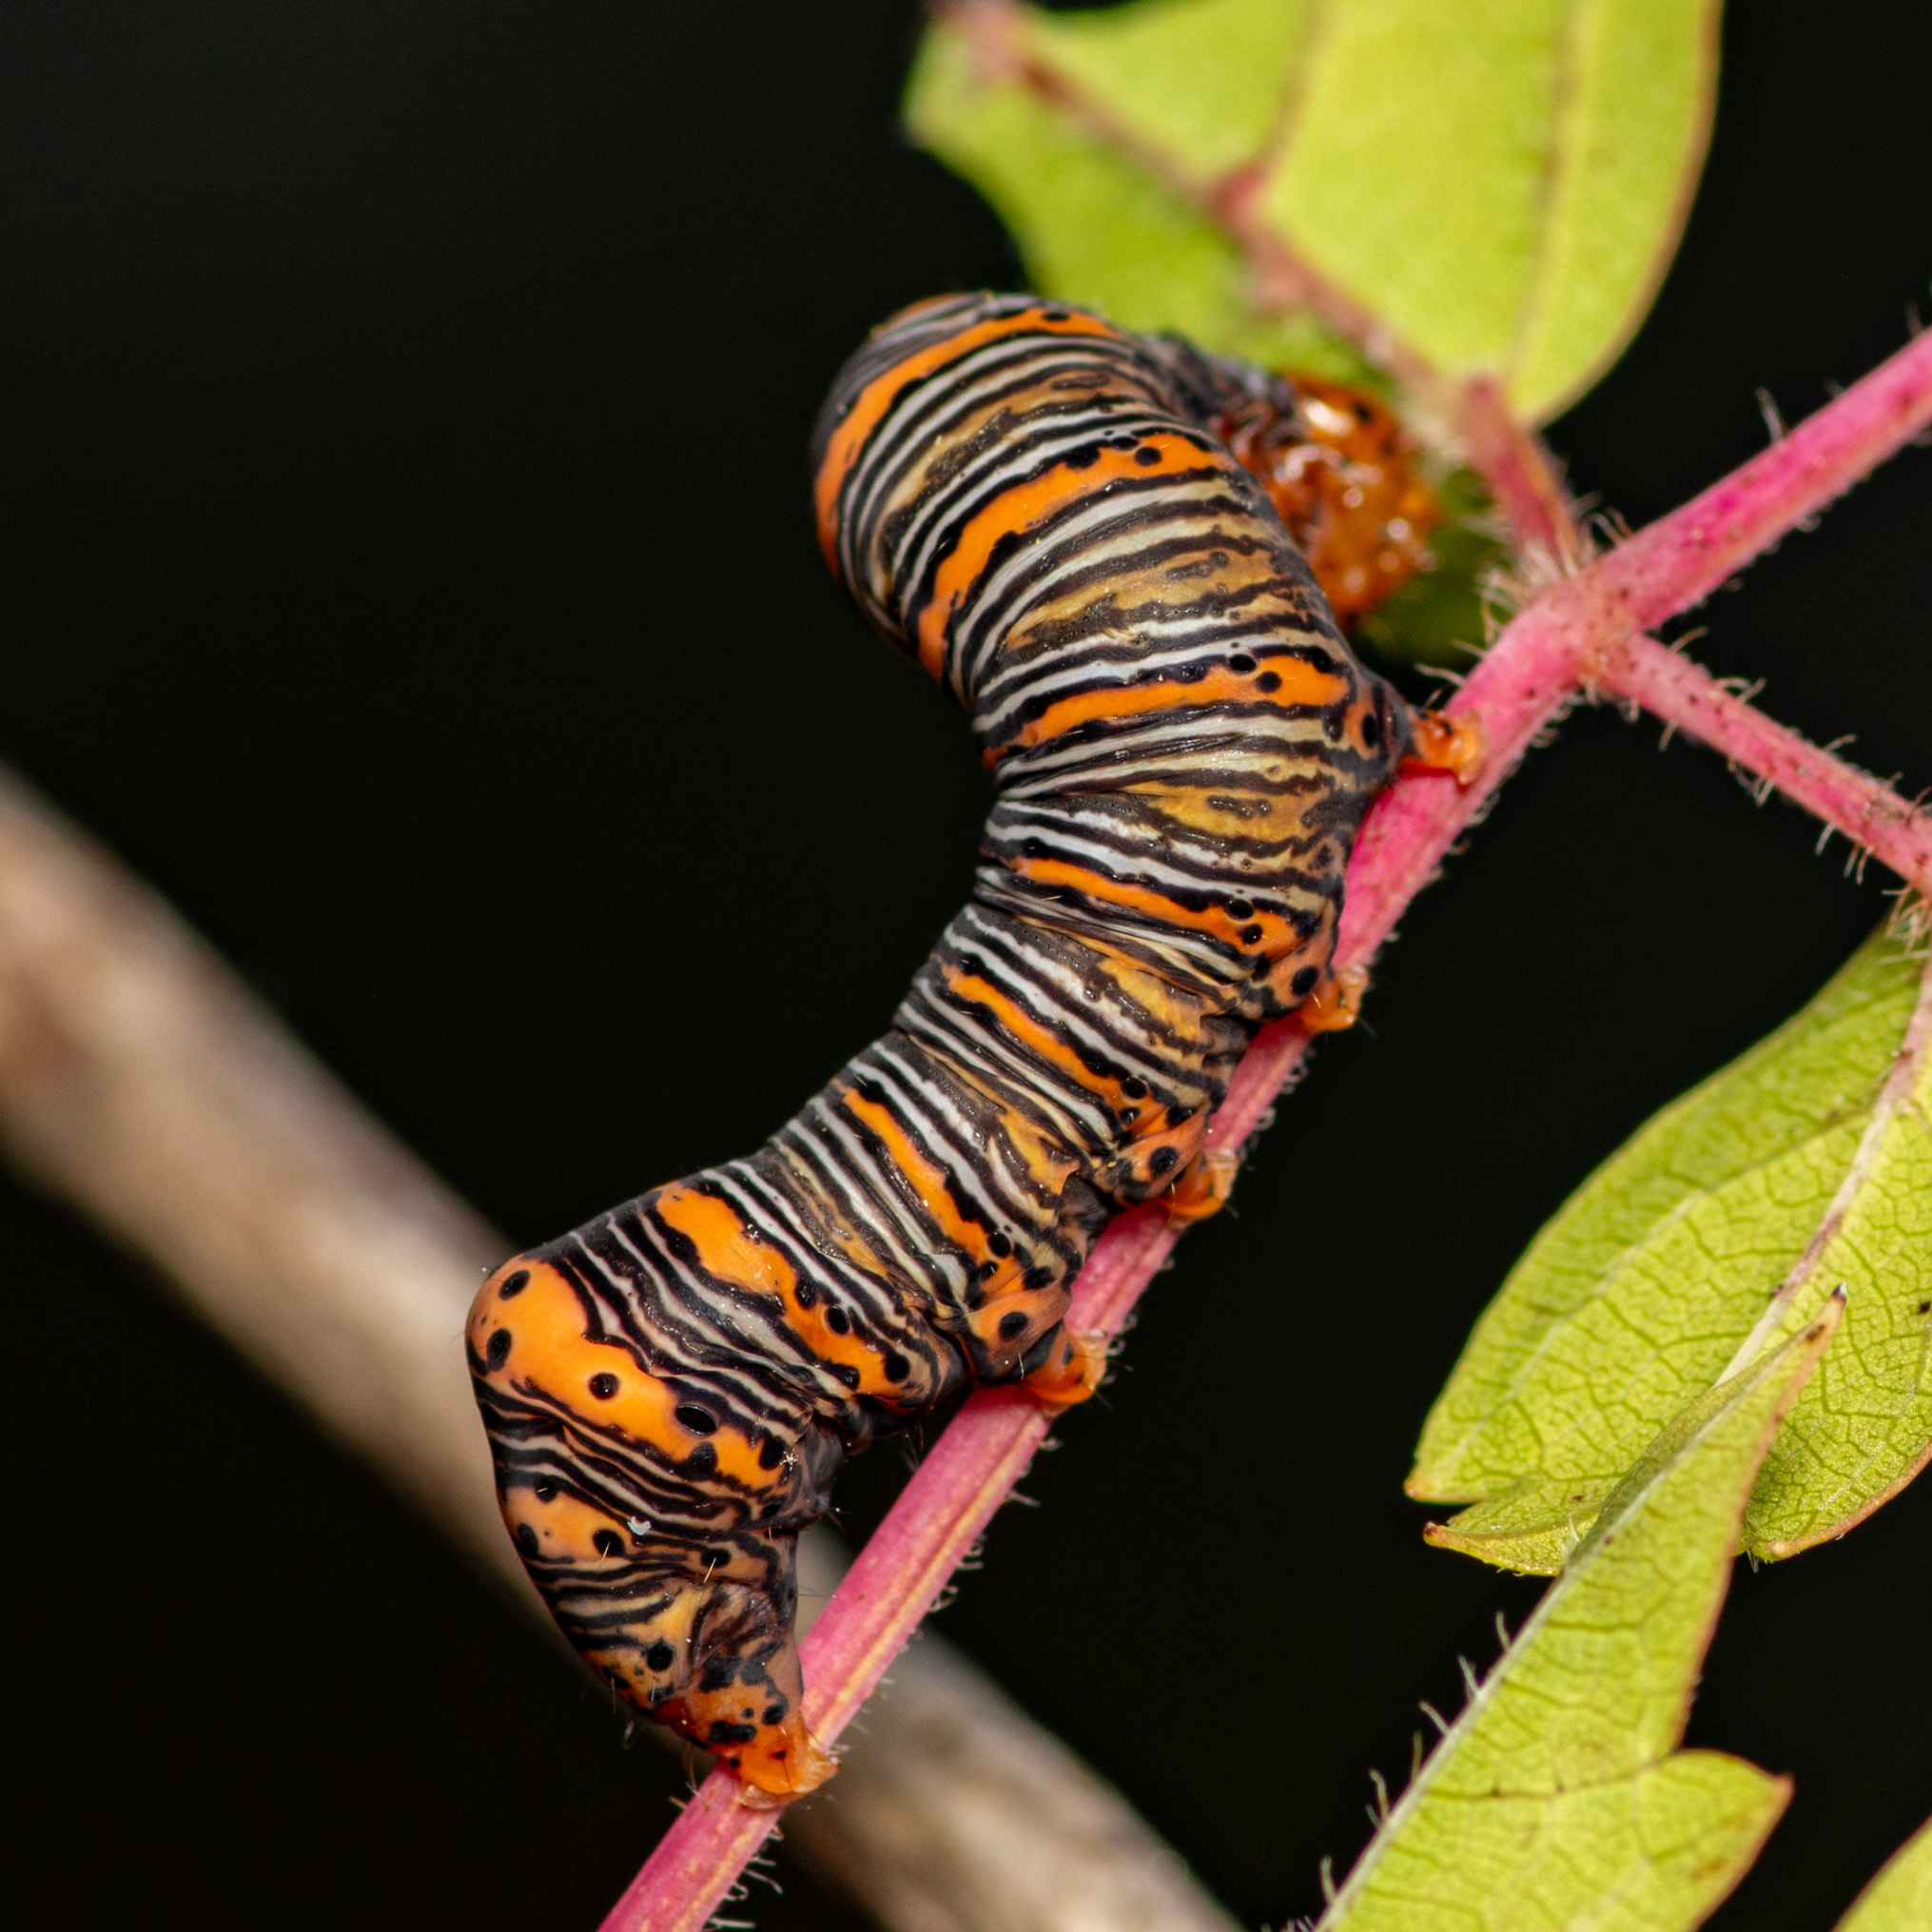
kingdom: Animalia
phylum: Arthropoda
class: Insecta
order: Lepidoptera
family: Noctuidae
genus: Eudryas
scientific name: Eudryas grata
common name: Beautiful wood-nymph
